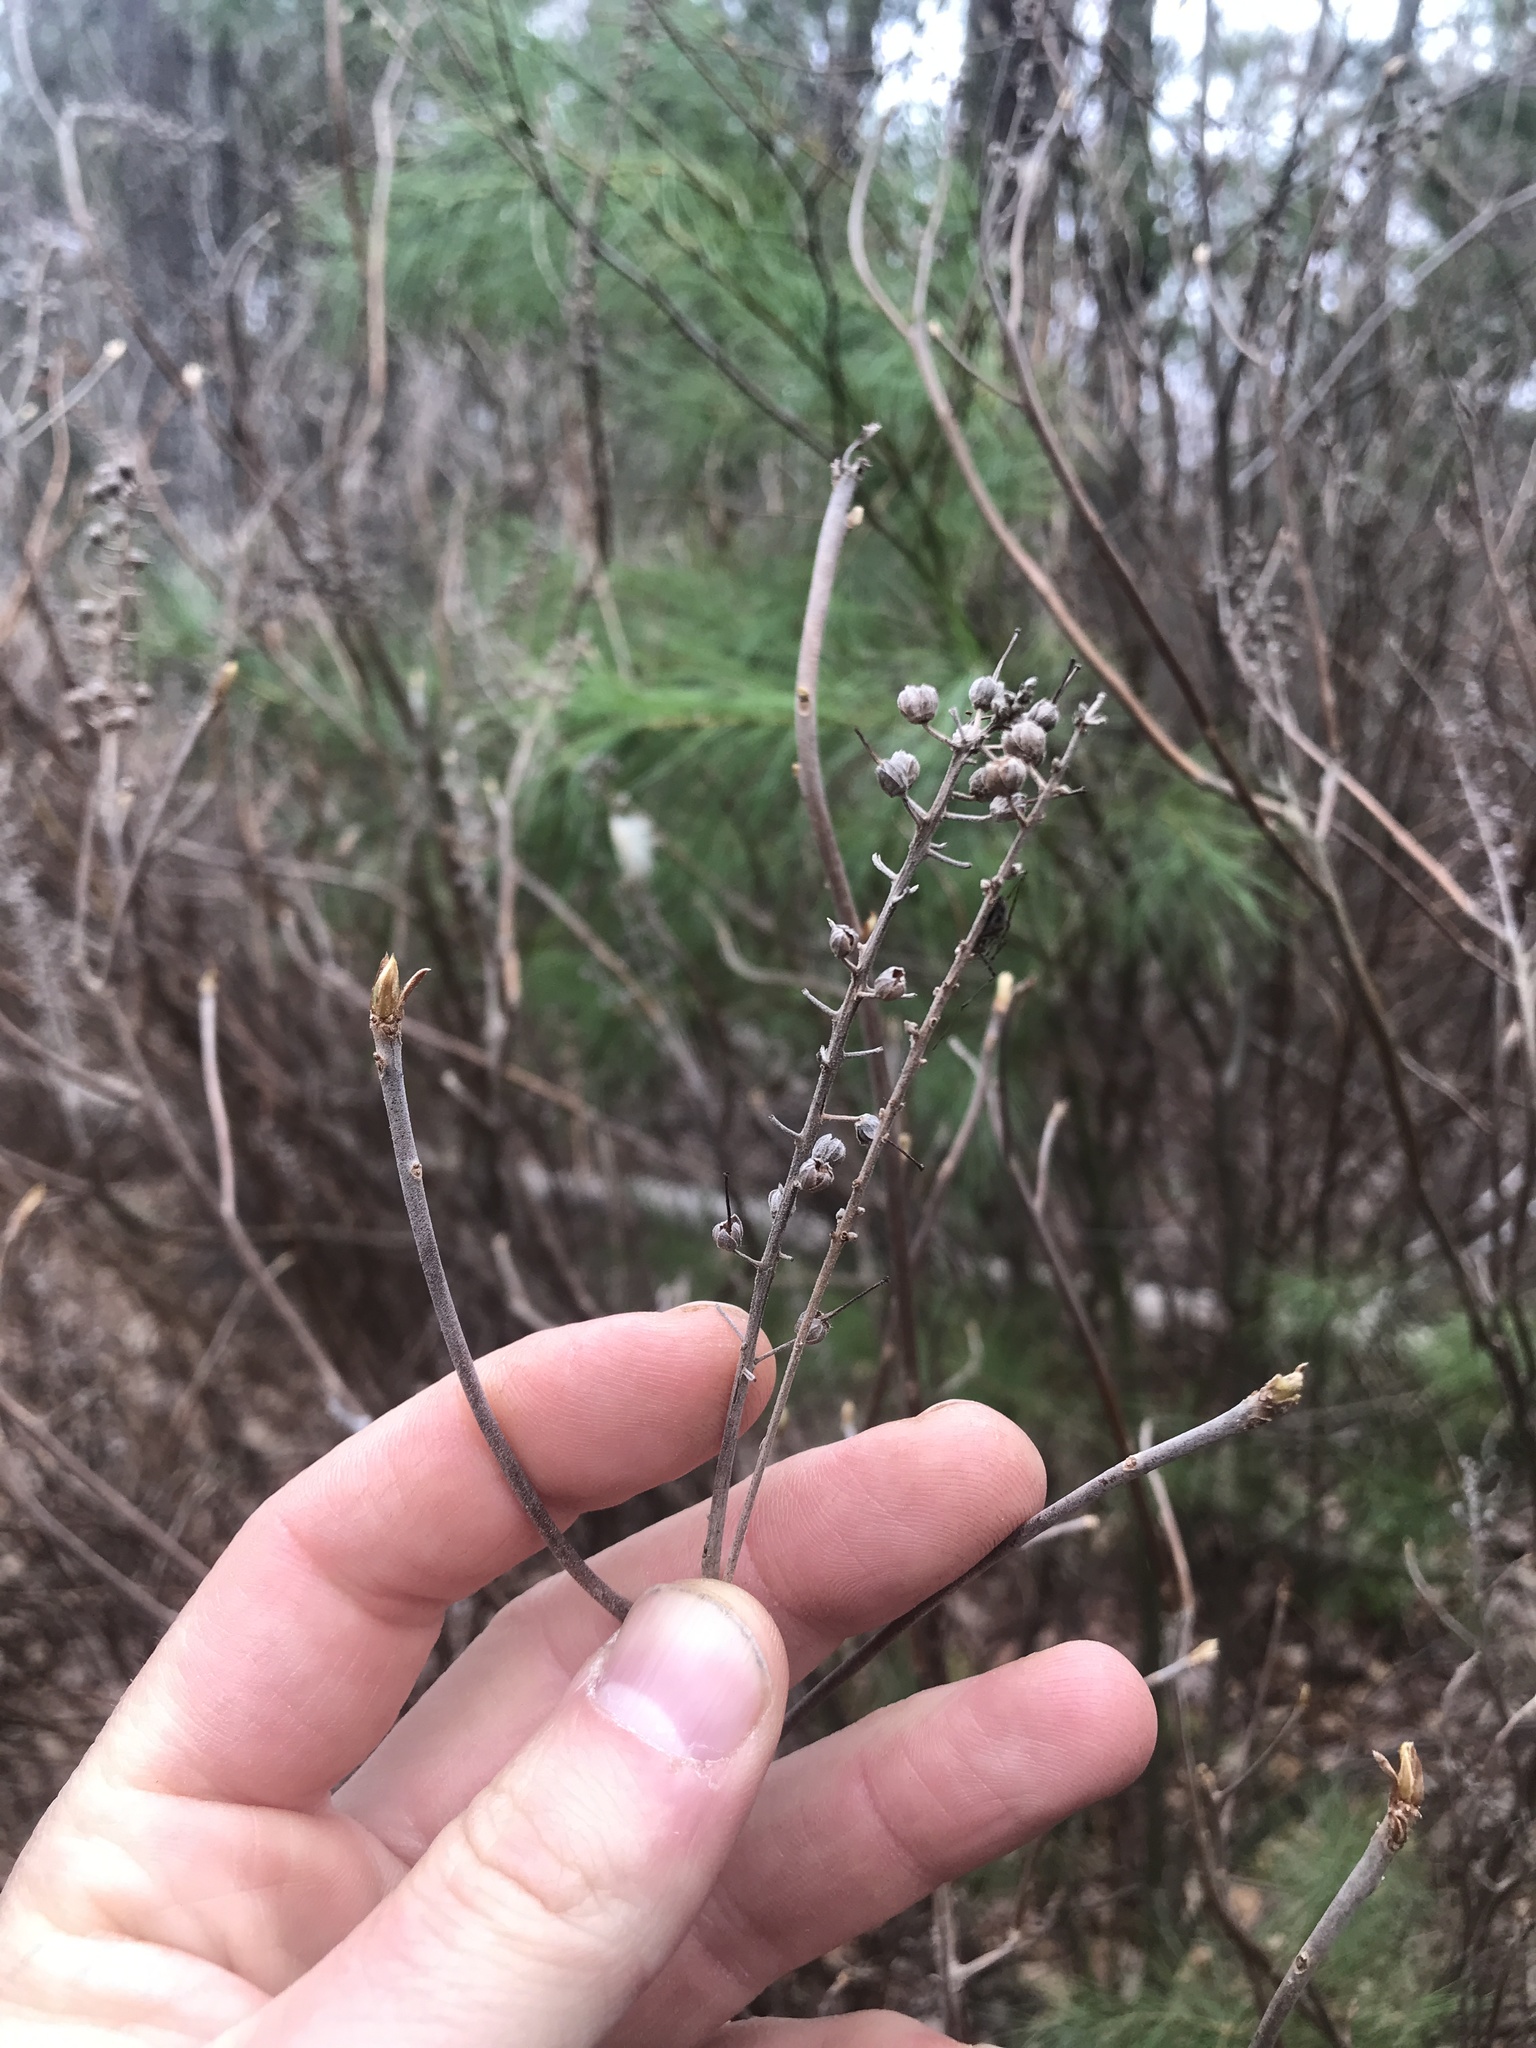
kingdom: Plantae
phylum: Tracheophyta
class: Magnoliopsida
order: Ericales
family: Clethraceae
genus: Clethra
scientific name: Clethra alnifolia
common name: Sweet pepperbush
